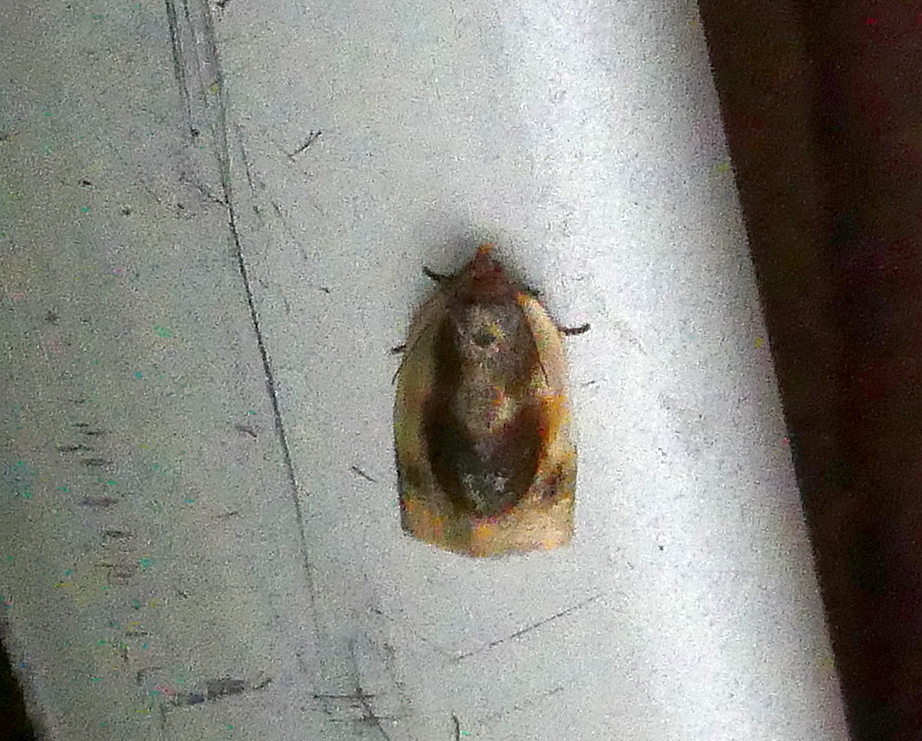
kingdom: Animalia
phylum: Arthropoda
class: Insecta
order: Lepidoptera
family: Tortricidae
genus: Clepsis
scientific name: Clepsis melaleucanus
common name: American apple tortrix
